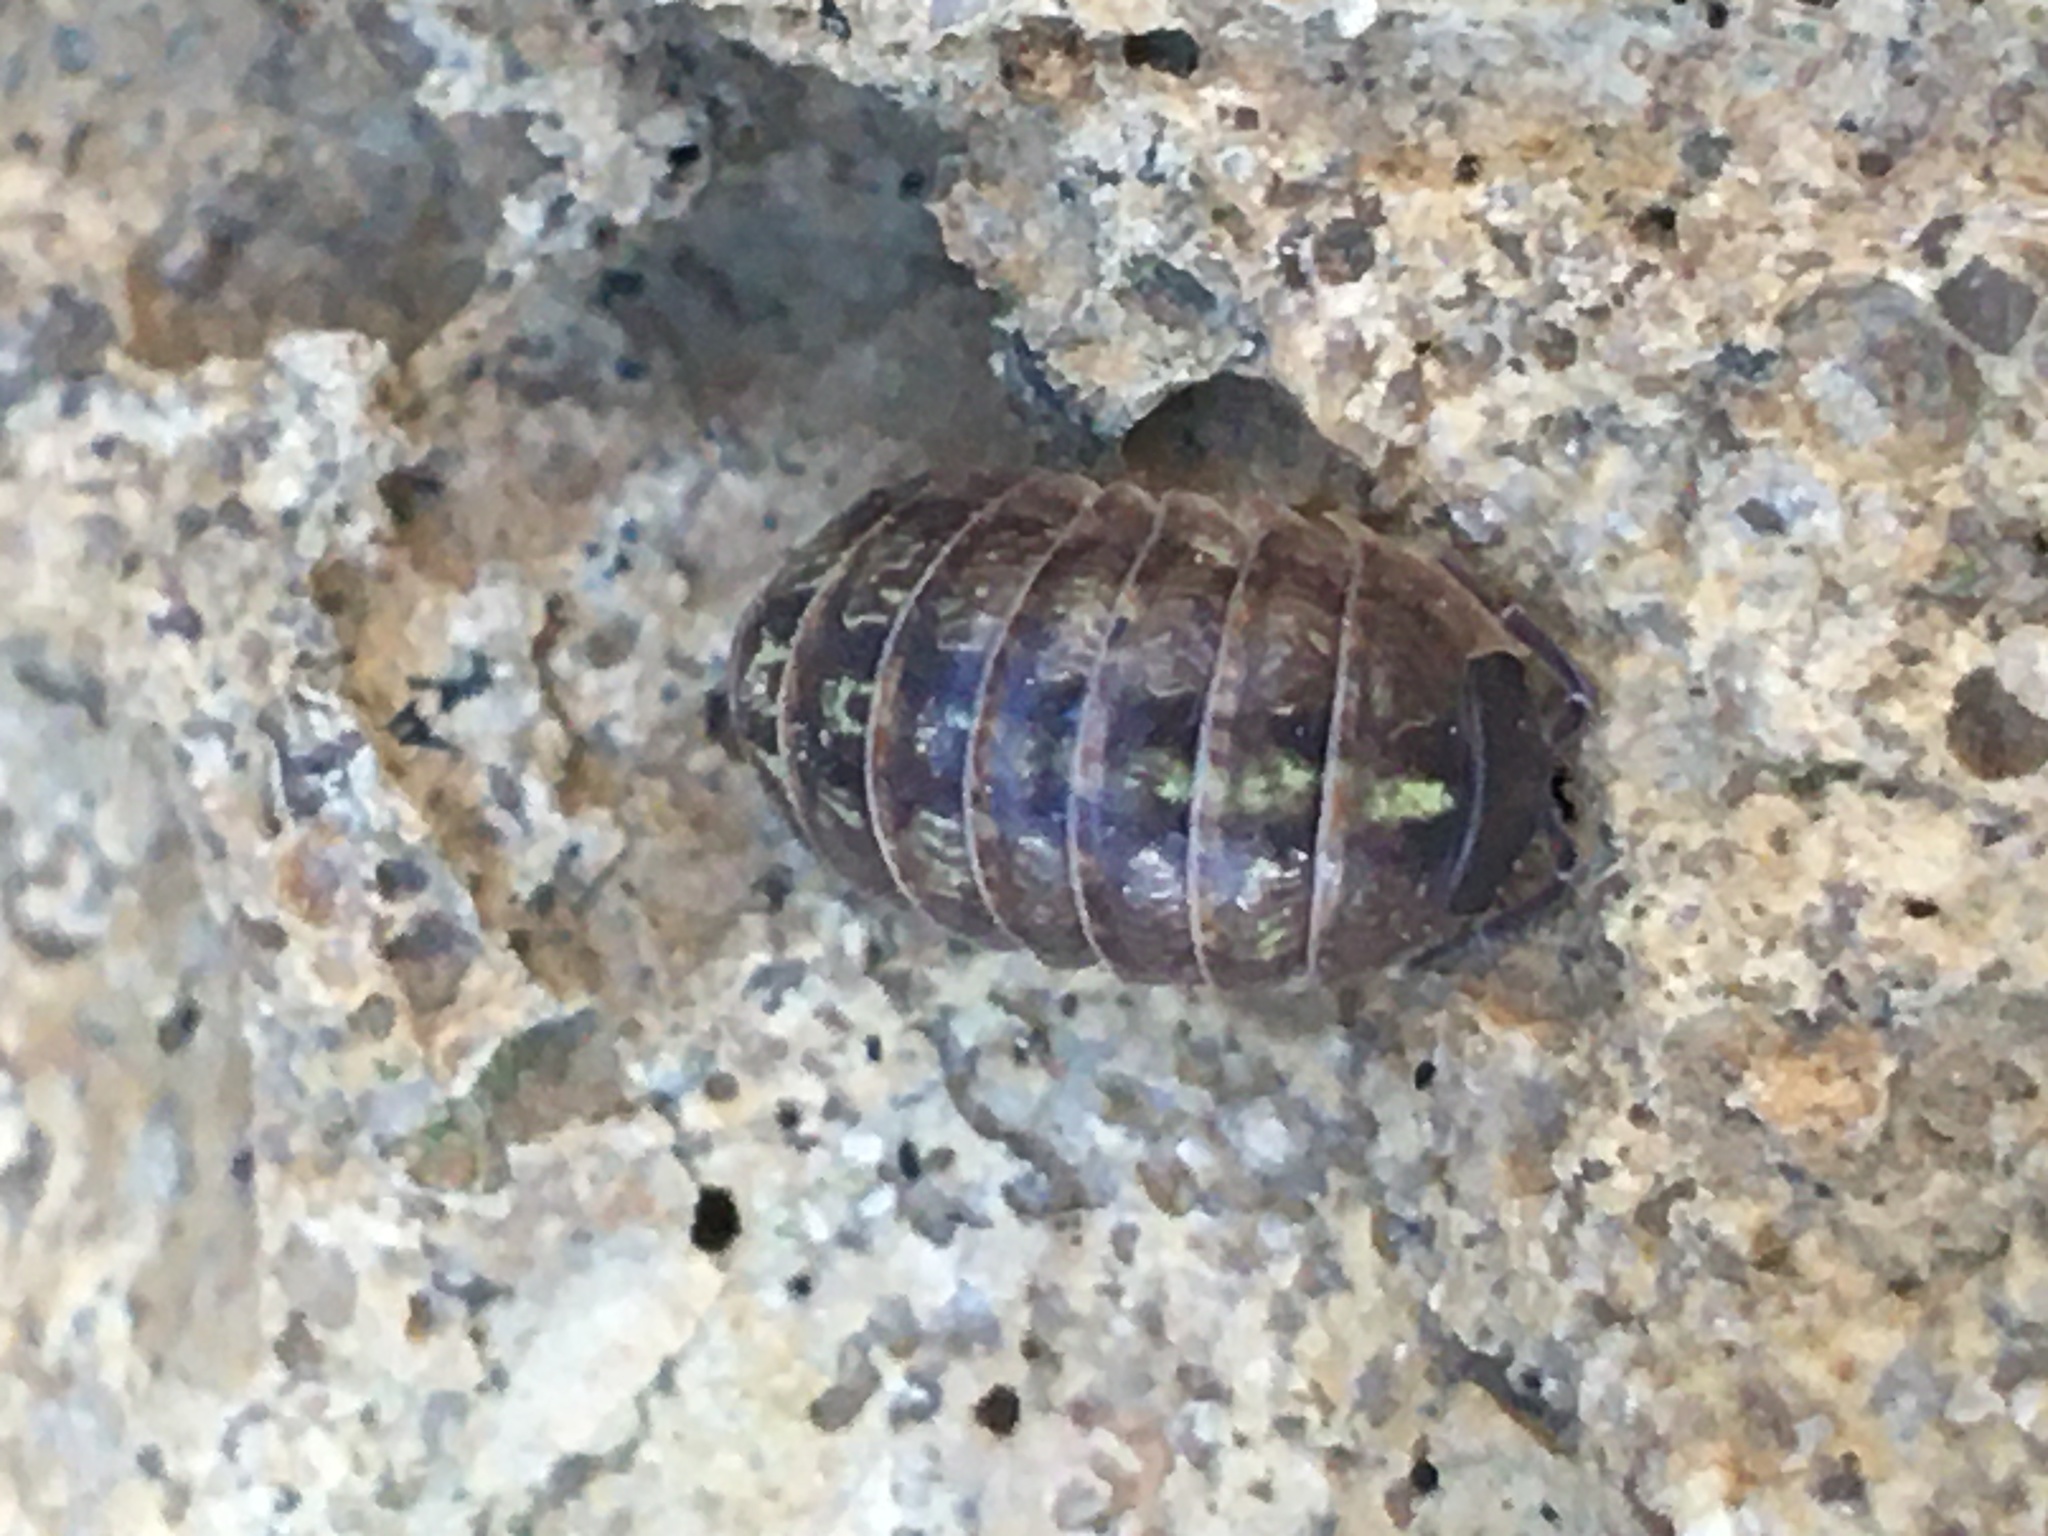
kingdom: Animalia
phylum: Arthropoda
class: Malacostraca
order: Isopoda
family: Armadillidiidae
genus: Armadillidium
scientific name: Armadillidium vulgare
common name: Common pill woodlouse
